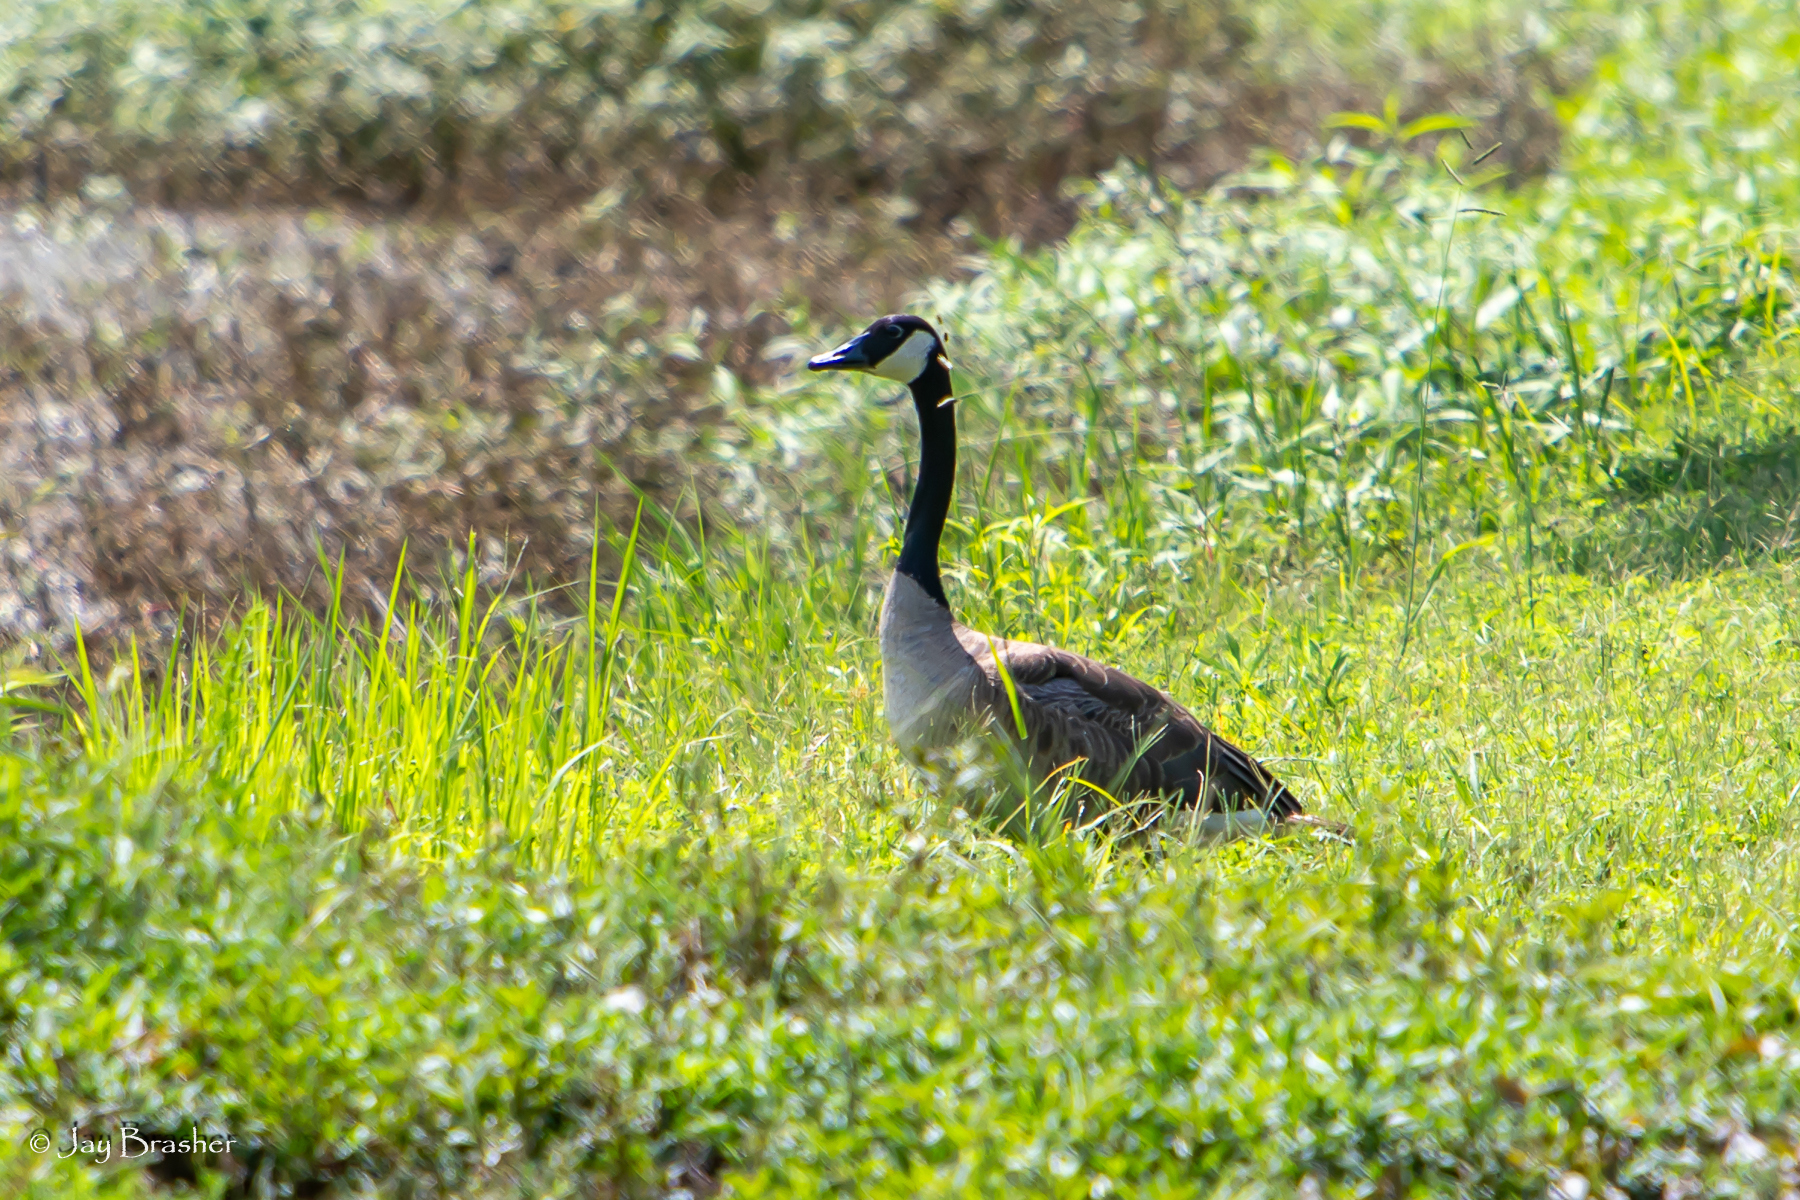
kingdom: Animalia
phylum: Chordata
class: Aves
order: Anseriformes
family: Anatidae
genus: Branta
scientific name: Branta canadensis
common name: Canada goose
